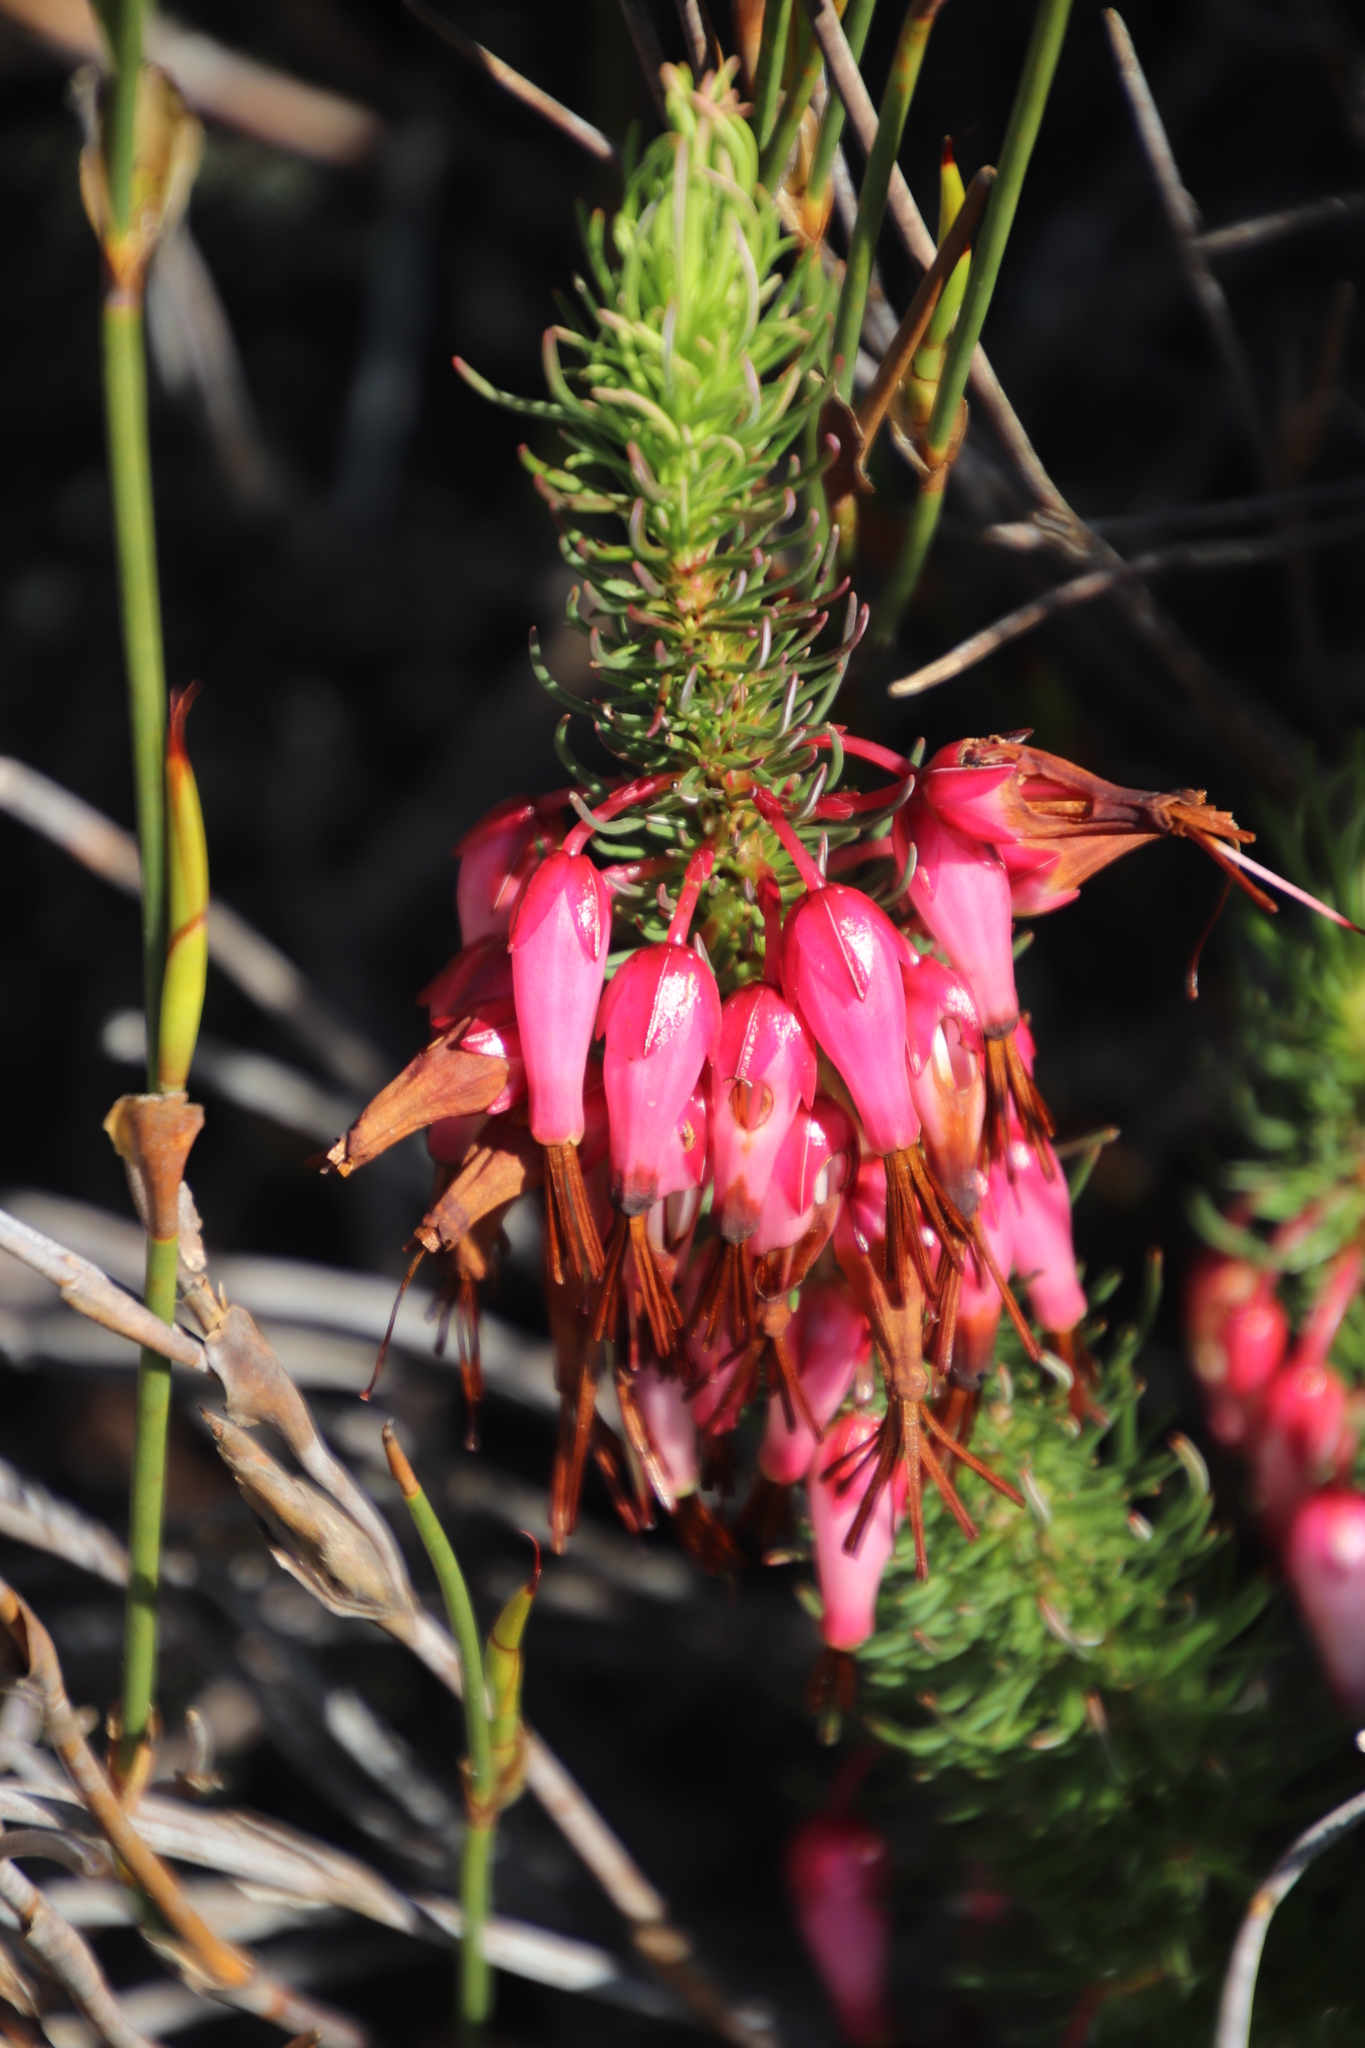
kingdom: Plantae
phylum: Tracheophyta
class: Magnoliopsida
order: Ericales
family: Ericaceae
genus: Erica
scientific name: Erica plukenetii
